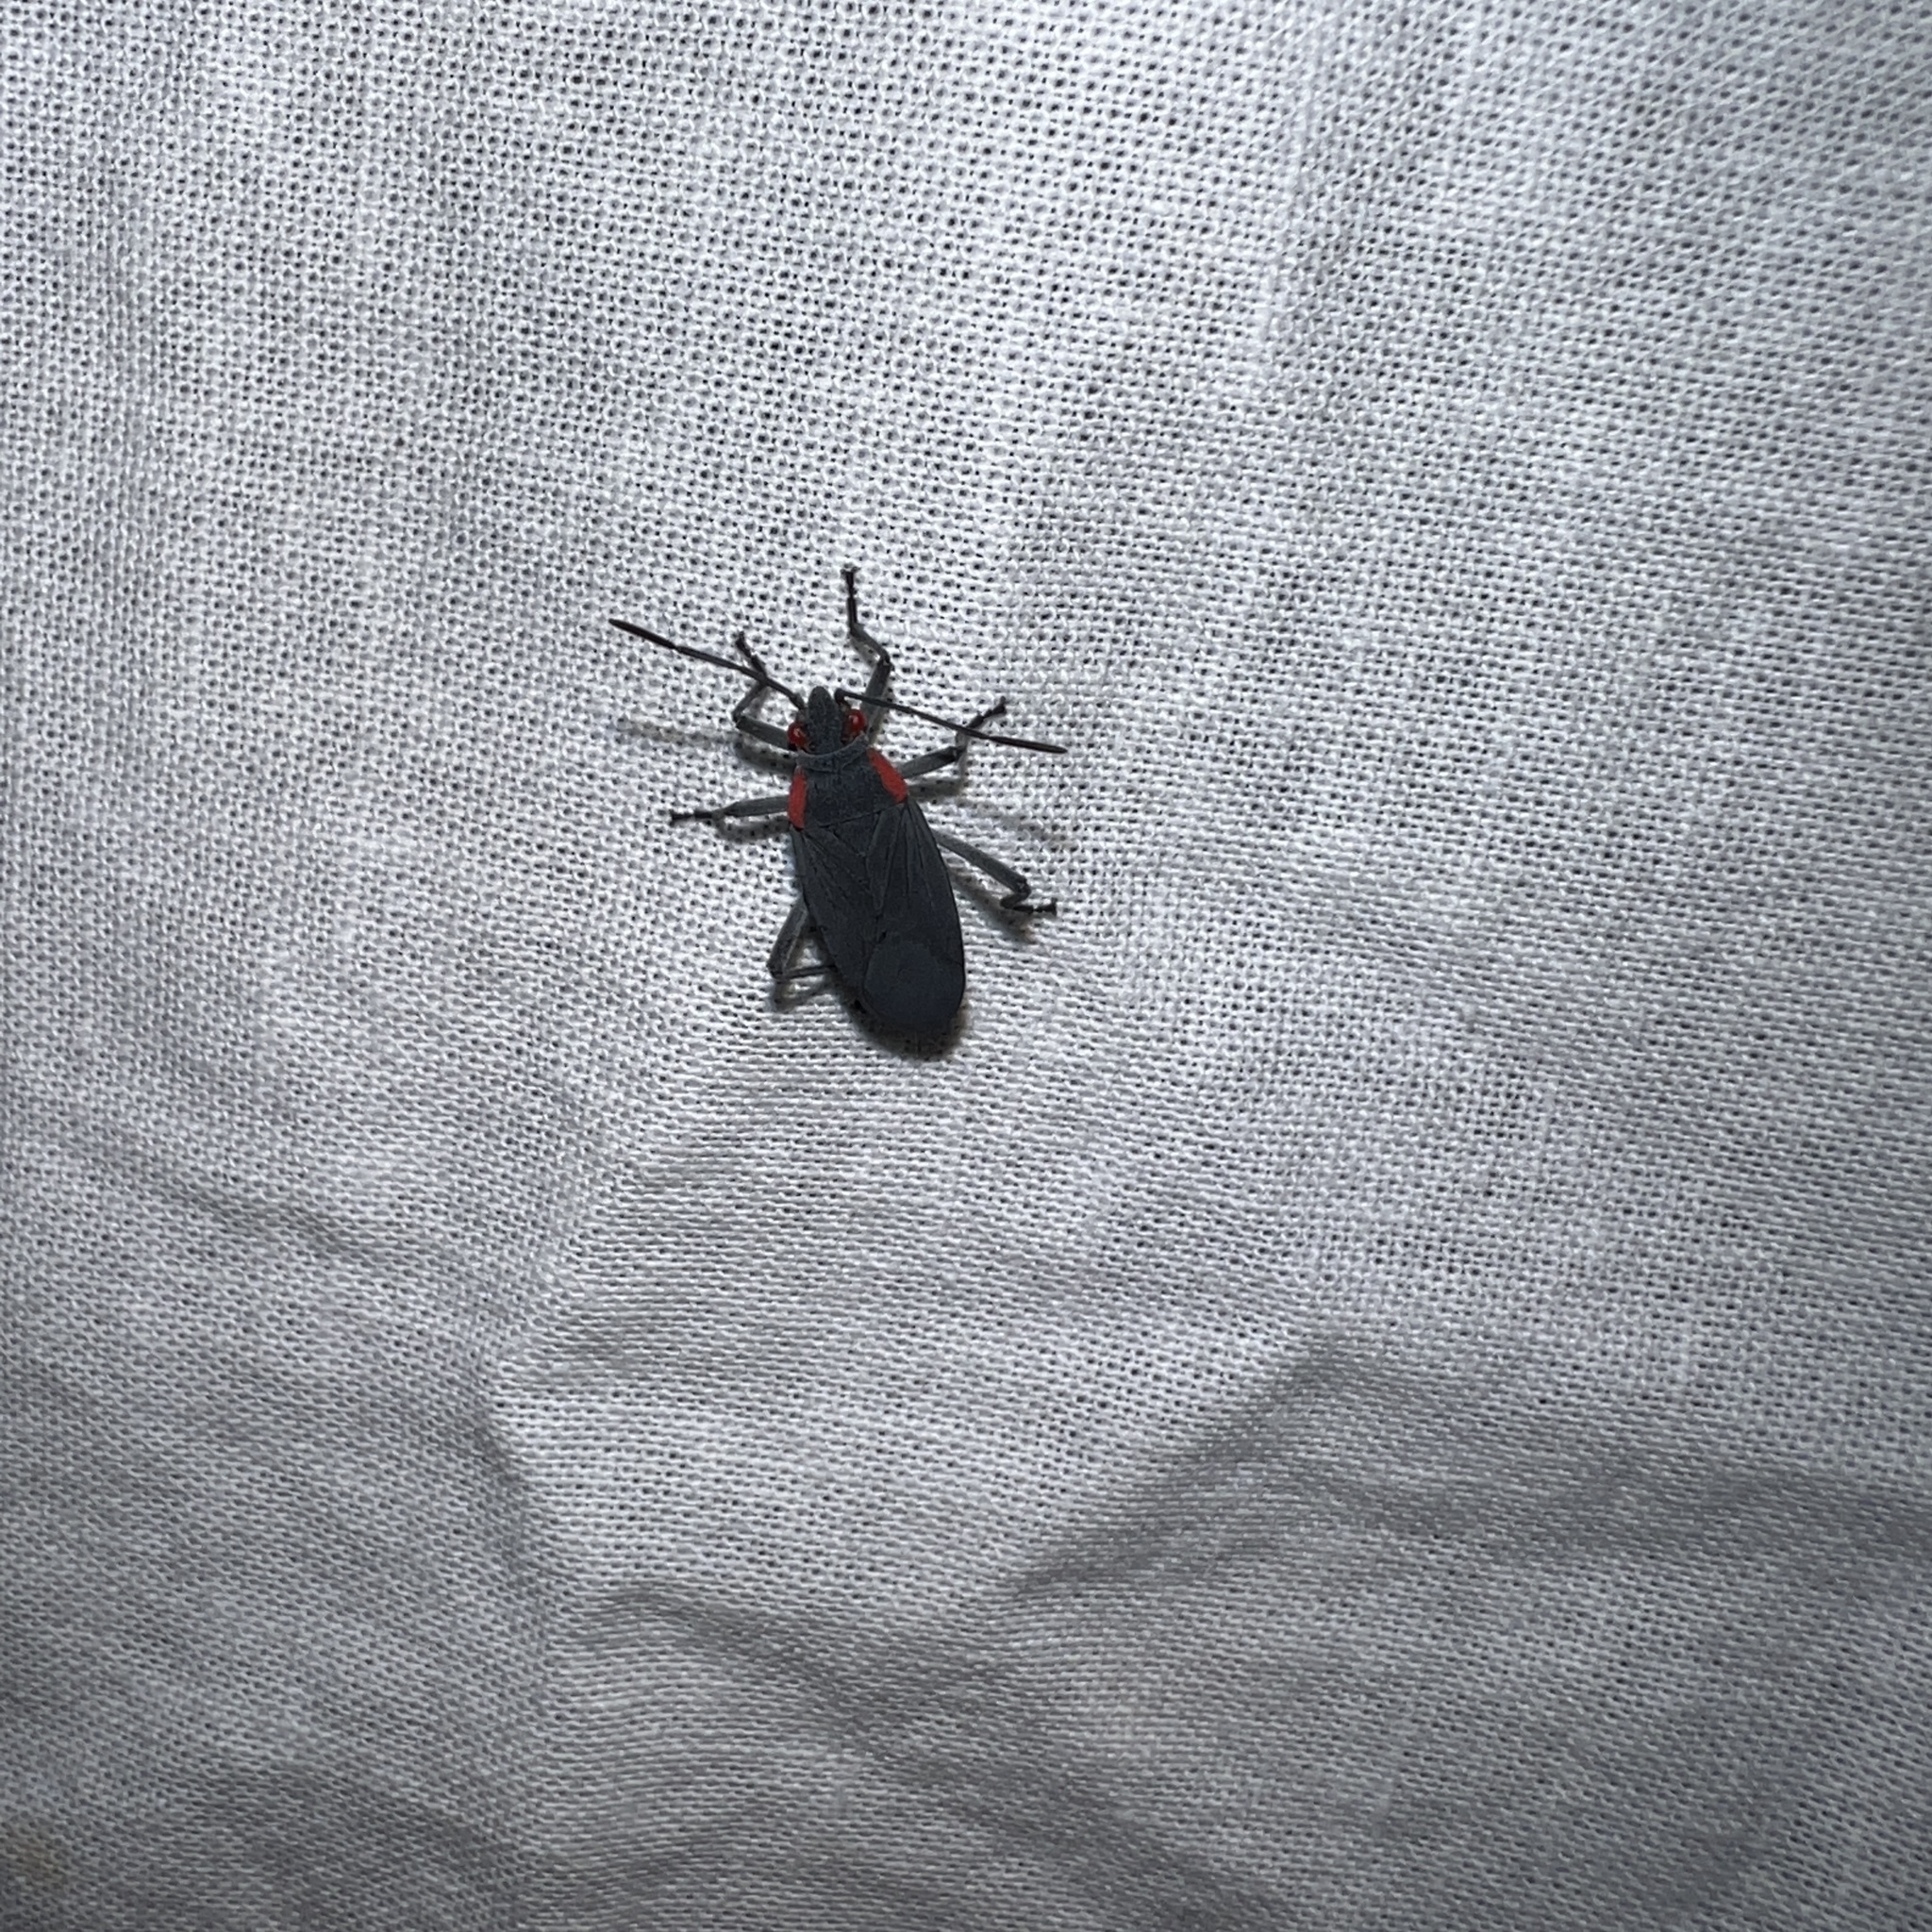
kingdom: Animalia
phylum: Arthropoda
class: Insecta
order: Hemiptera
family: Rhopalidae
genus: Jadera
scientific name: Jadera haematoloma
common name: Red-shouldered bug
